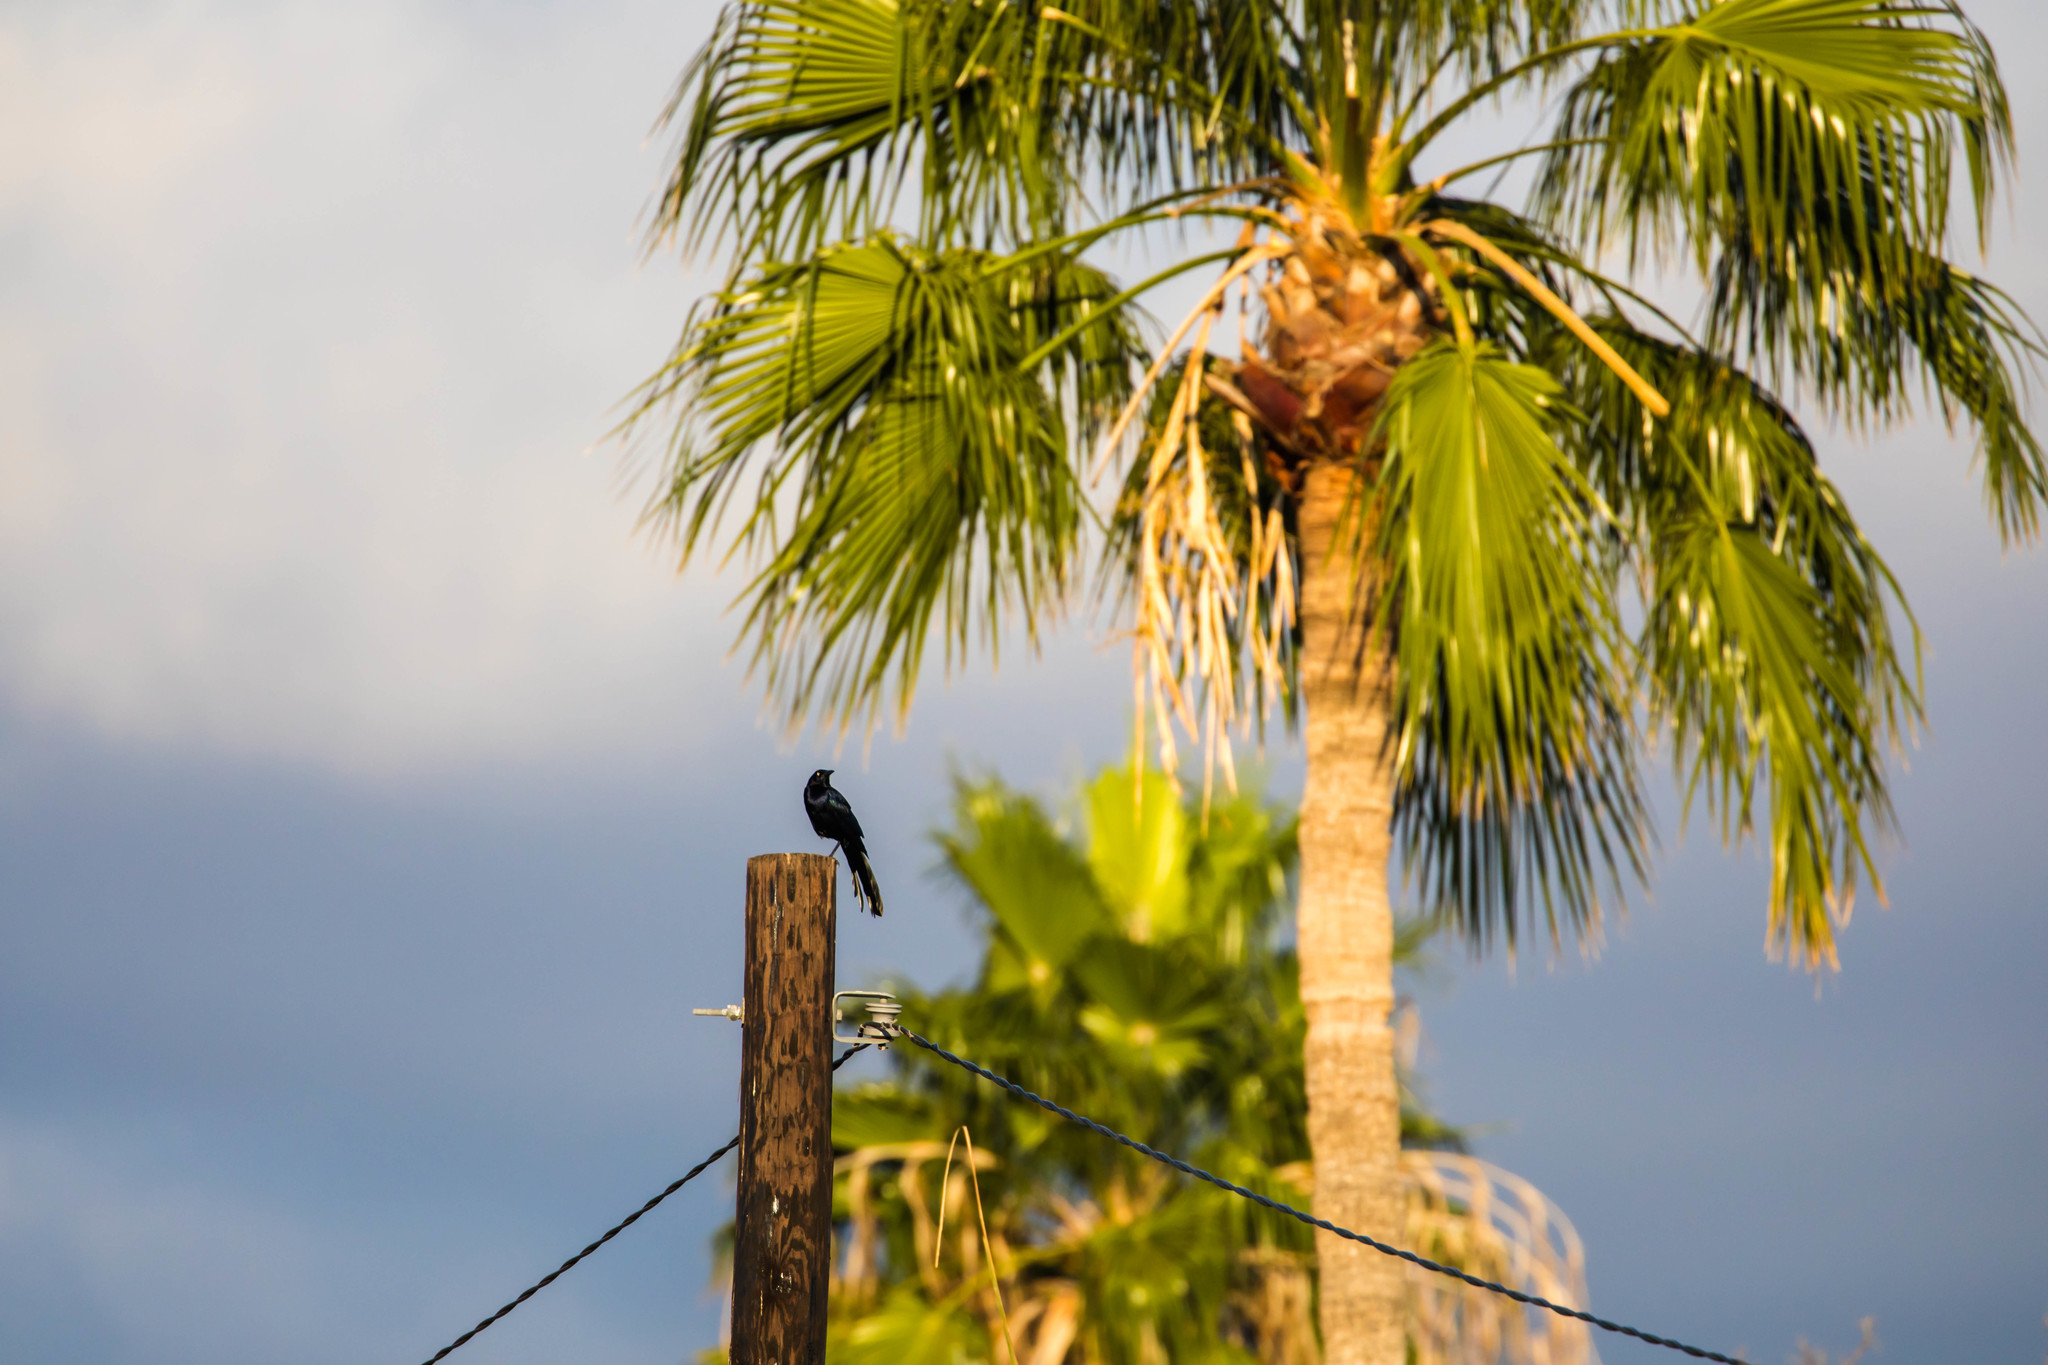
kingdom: Animalia
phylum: Chordata
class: Aves
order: Passeriformes
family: Icteridae
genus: Quiscalus
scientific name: Quiscalus mexicanus
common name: Great-tailed grackle
